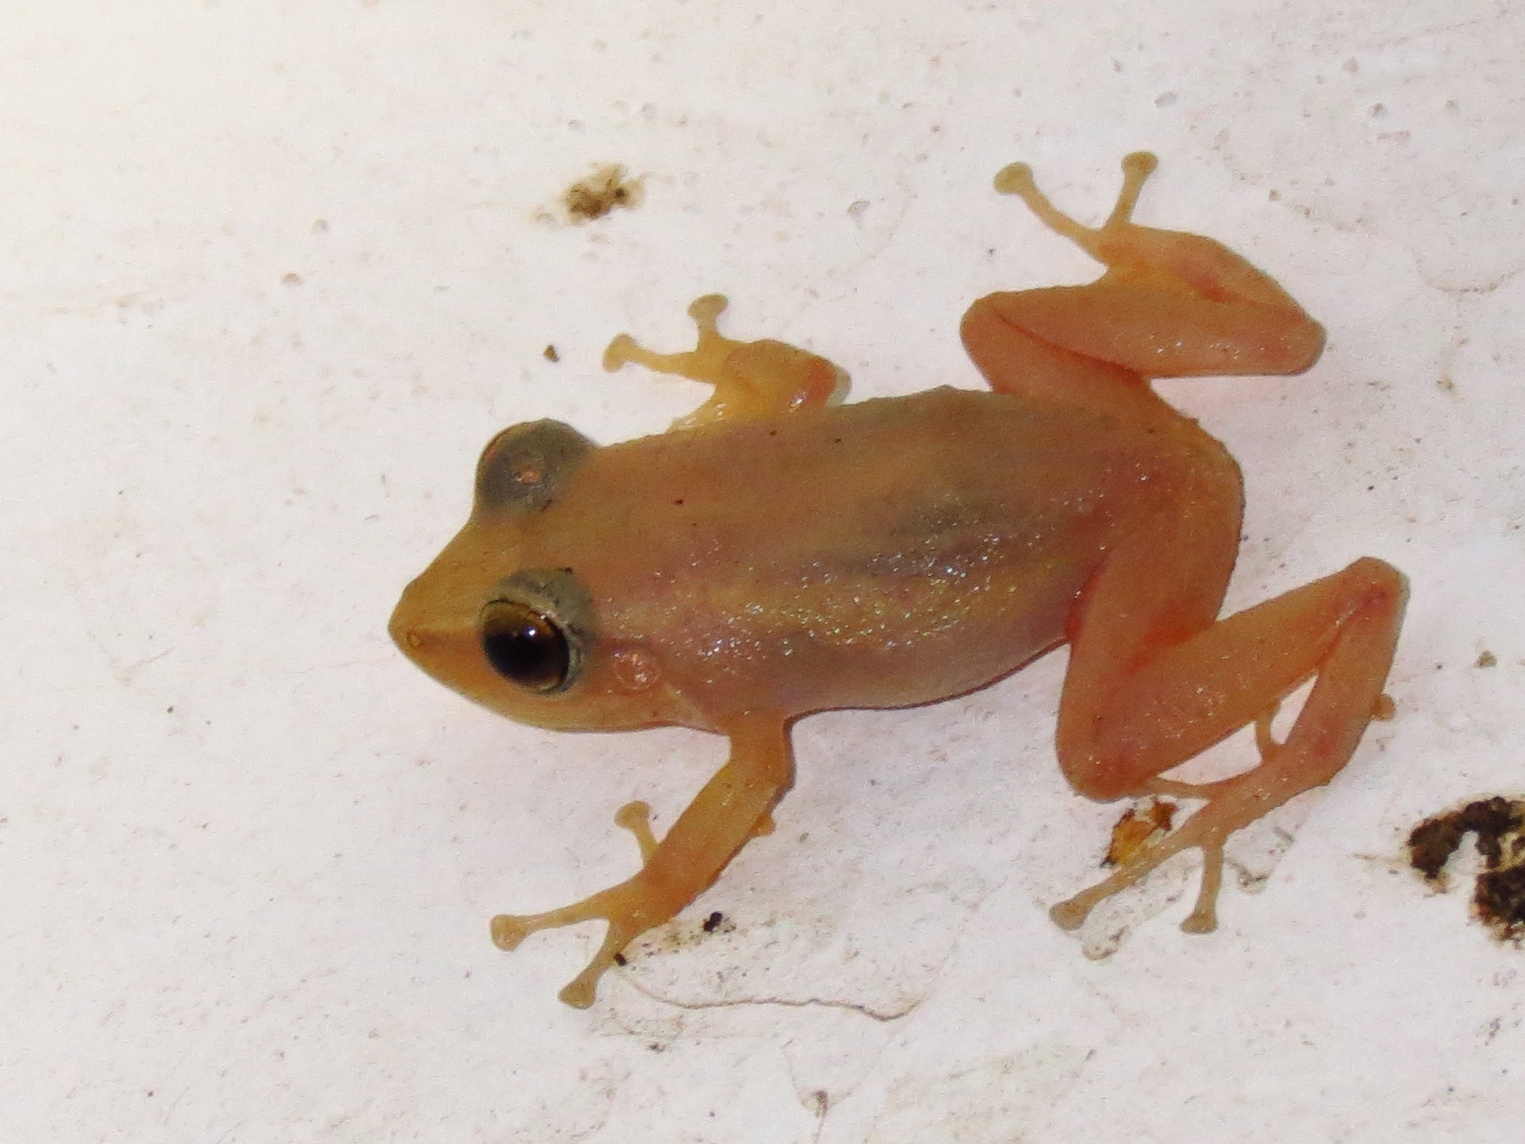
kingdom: Animalia
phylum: Chordata
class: Amphibia
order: Anura
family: Eleutherodactylidae
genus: Eleutherodactylus
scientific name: Eleutherodactylus coqui
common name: Coqui frog
